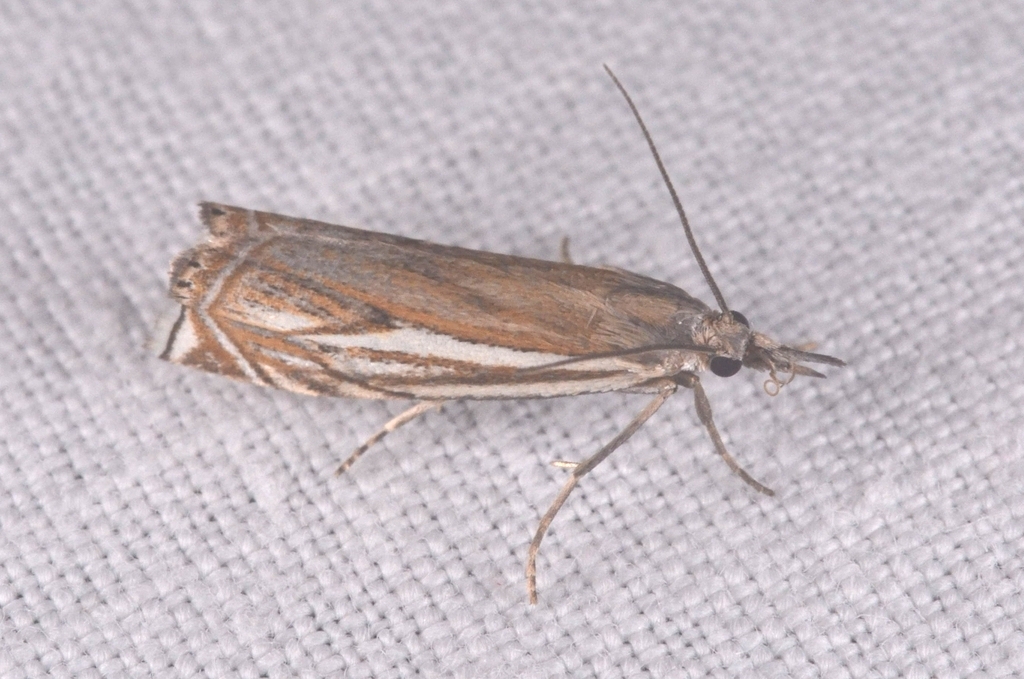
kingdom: Animalia
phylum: Arthropoda
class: Insecta
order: Lepidoptera
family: Crambidae
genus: Crambus
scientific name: Crambus nemorella
